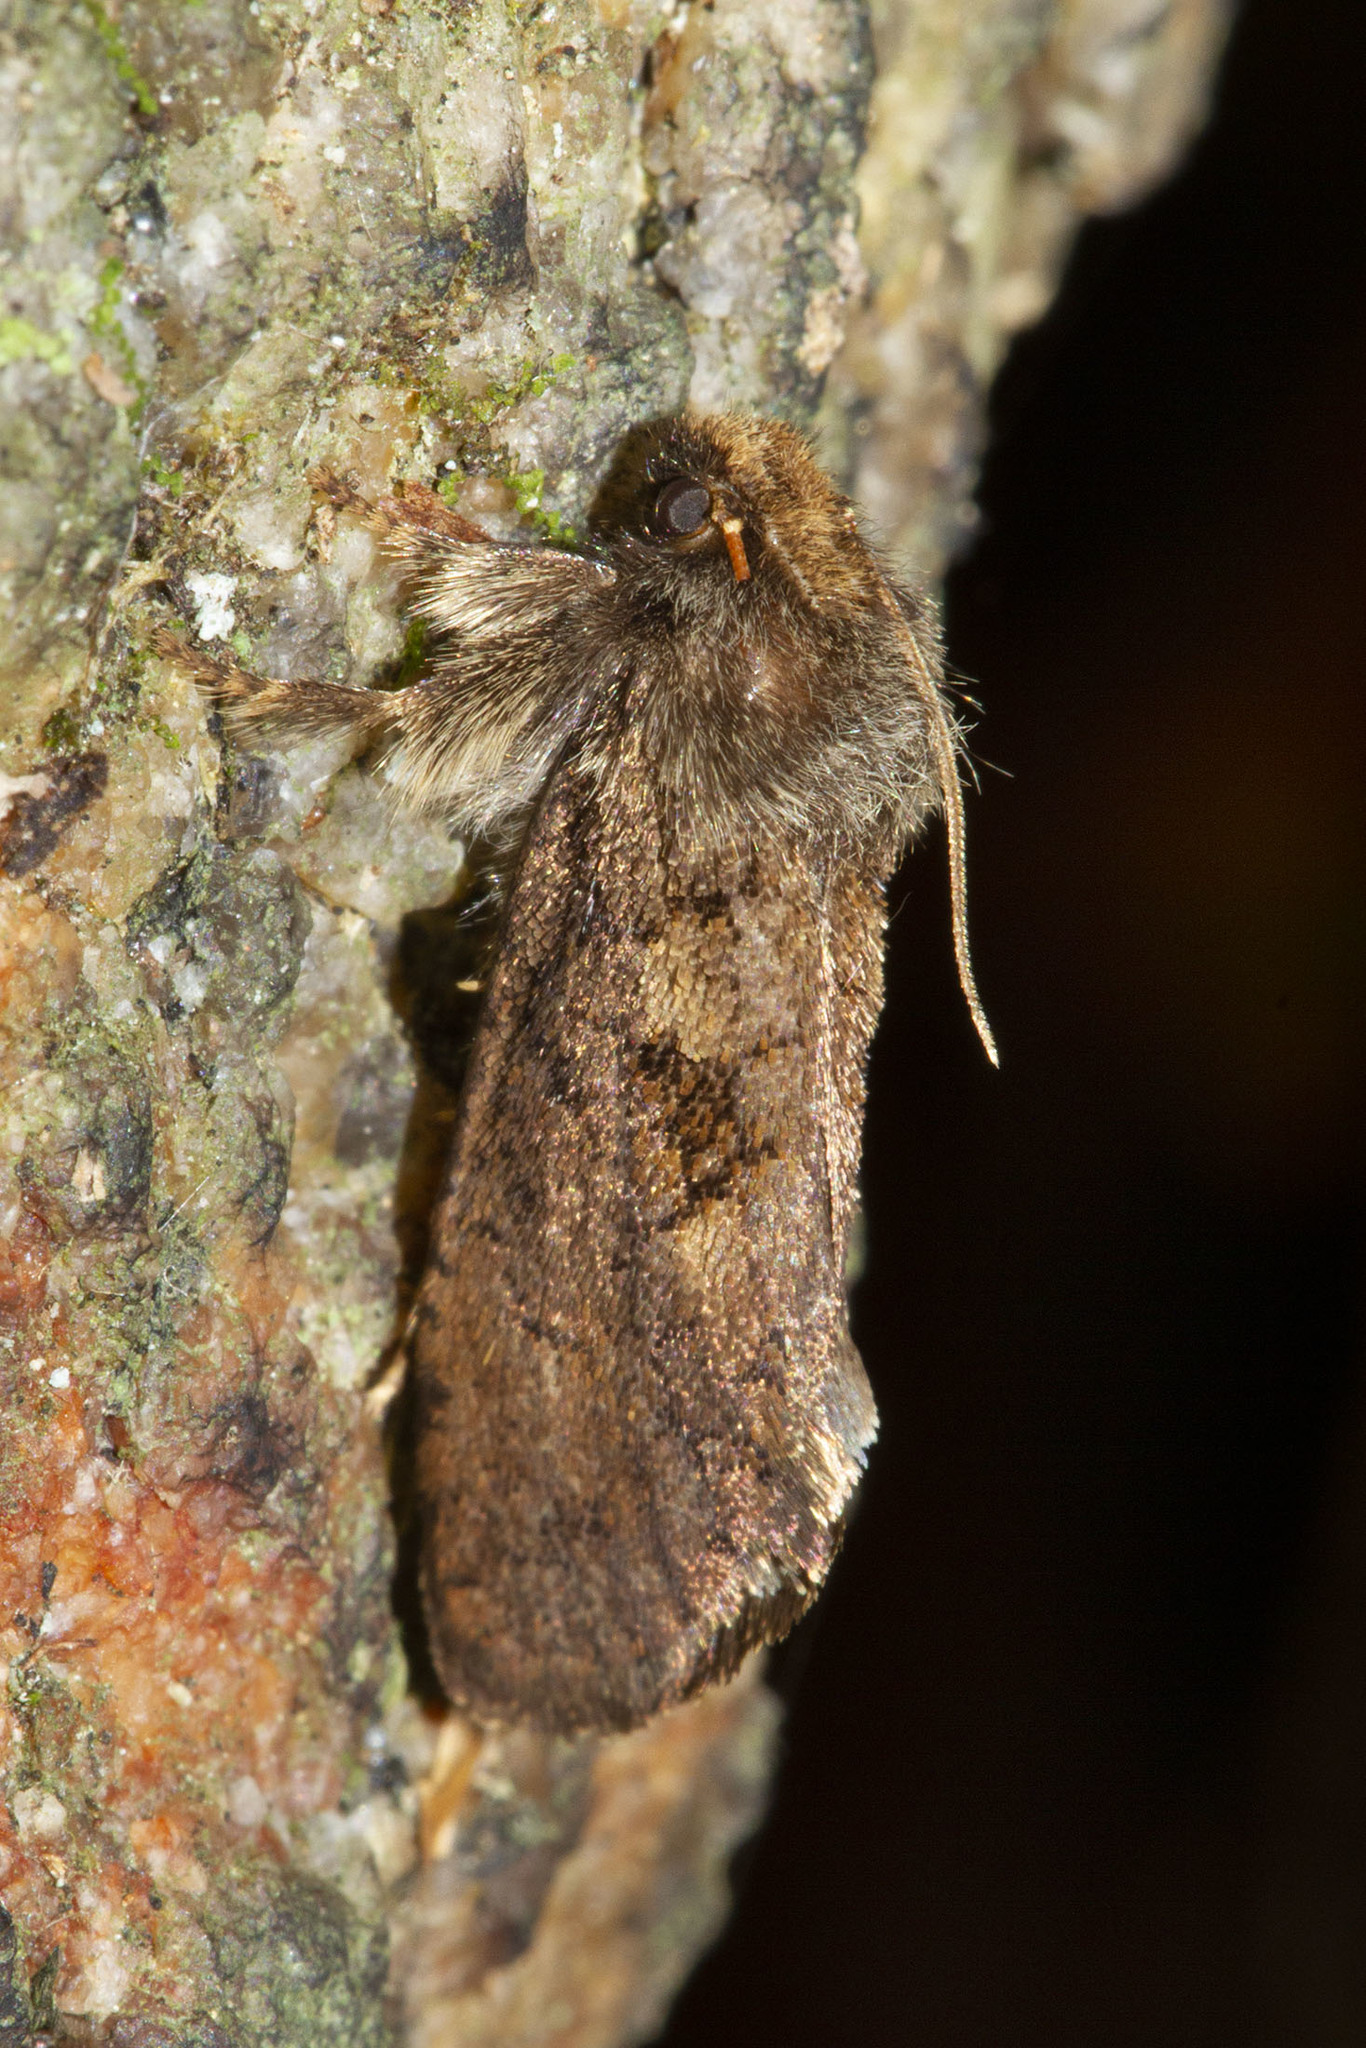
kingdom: Animalia
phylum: Arthropoda
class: Insecta
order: Lepidoptera
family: Tineidae
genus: Acrolophus
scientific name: Acrolophus mora
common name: Dark acrolophus
